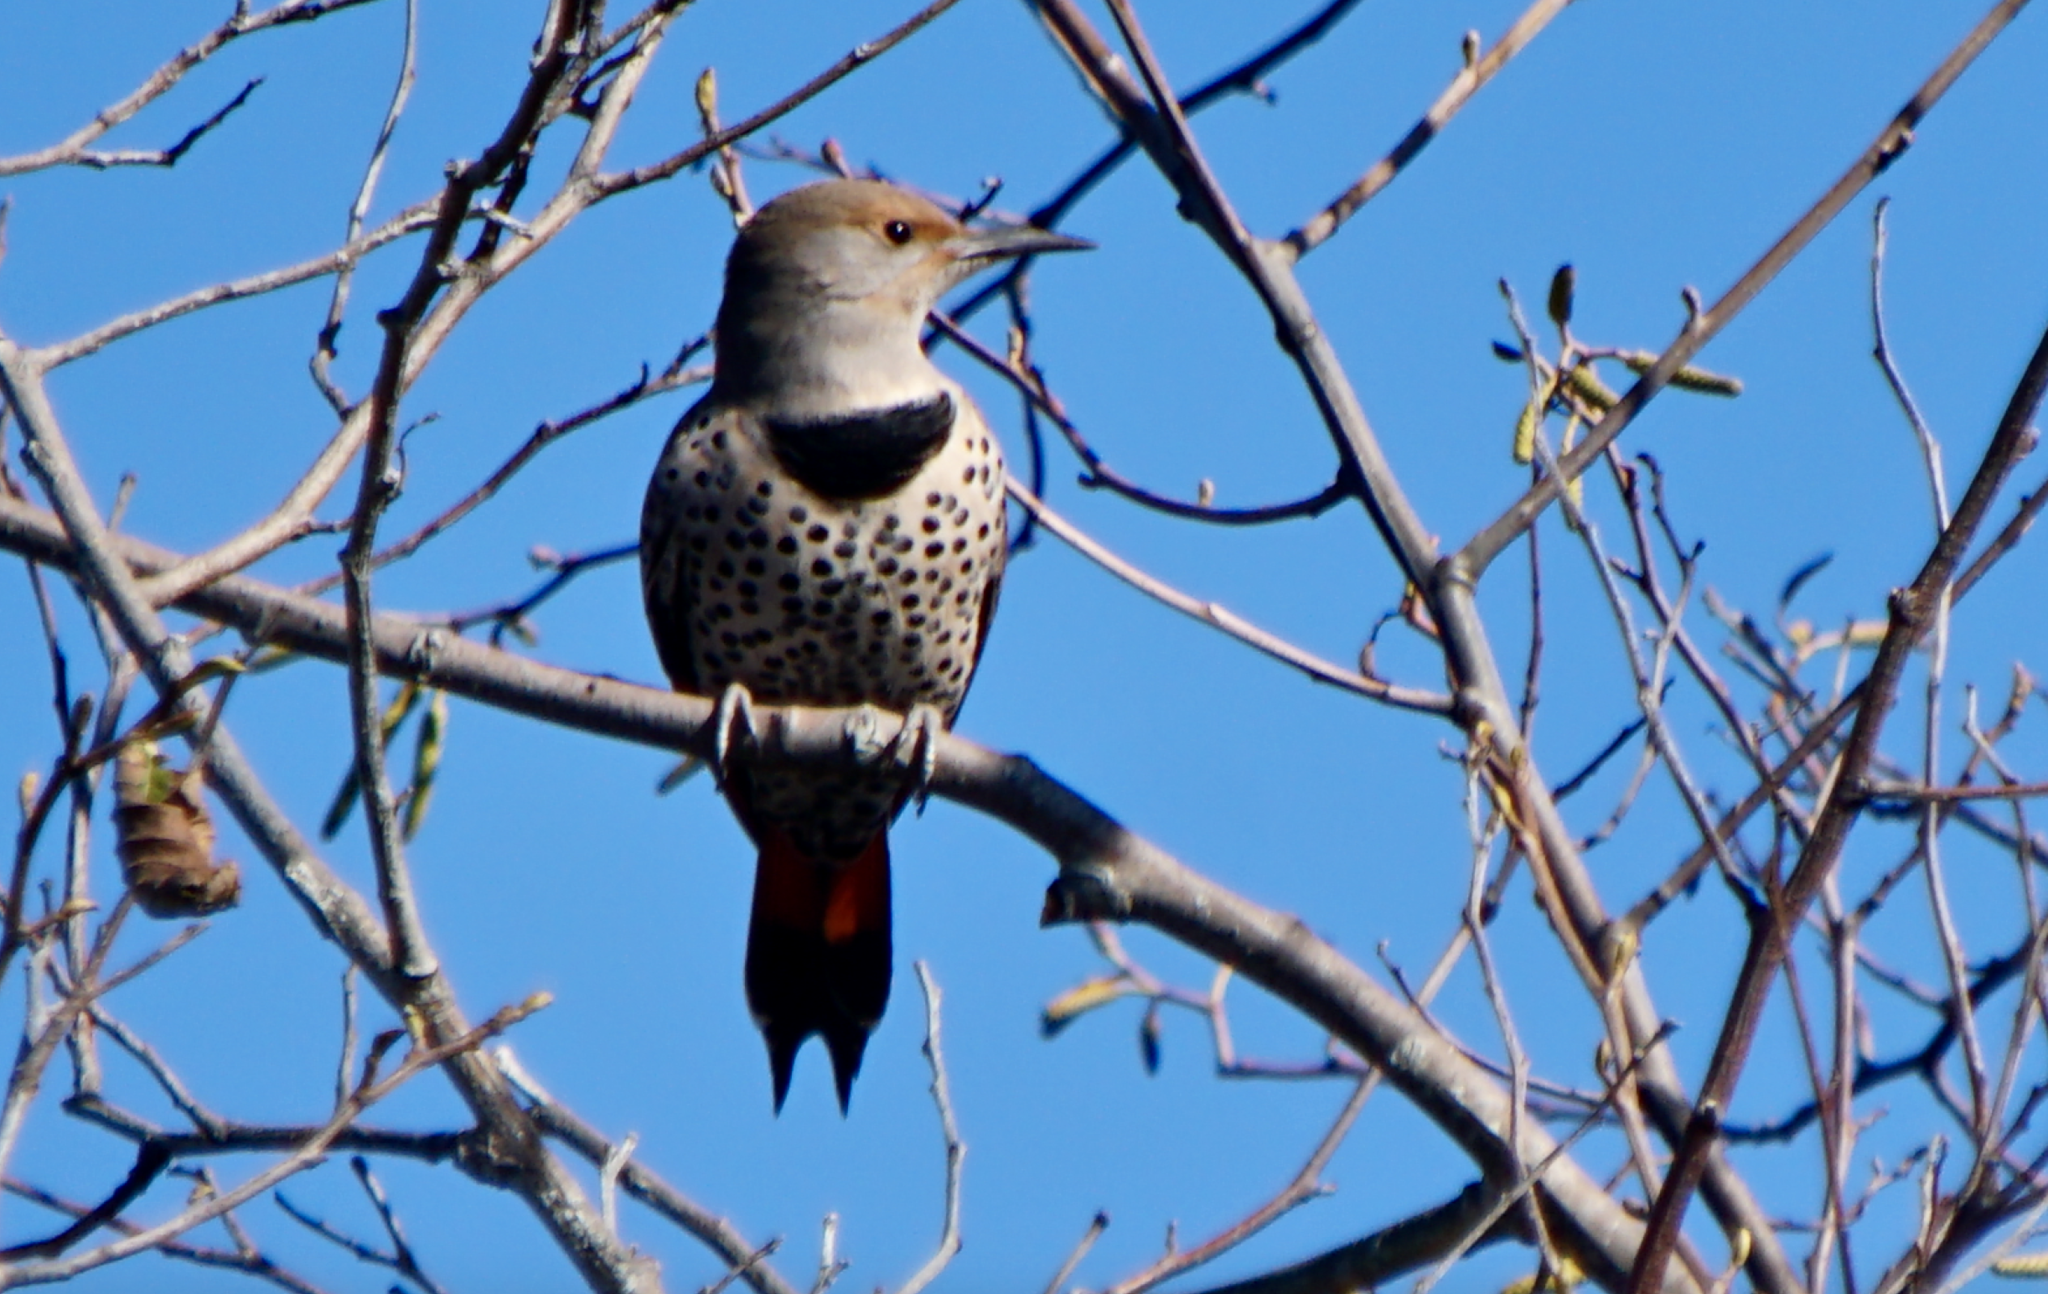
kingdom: Animalia
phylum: Chordata
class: Aves
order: Piciformes
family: Picidae
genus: Colaptes
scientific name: Colaptes auratus
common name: Northern flicker
